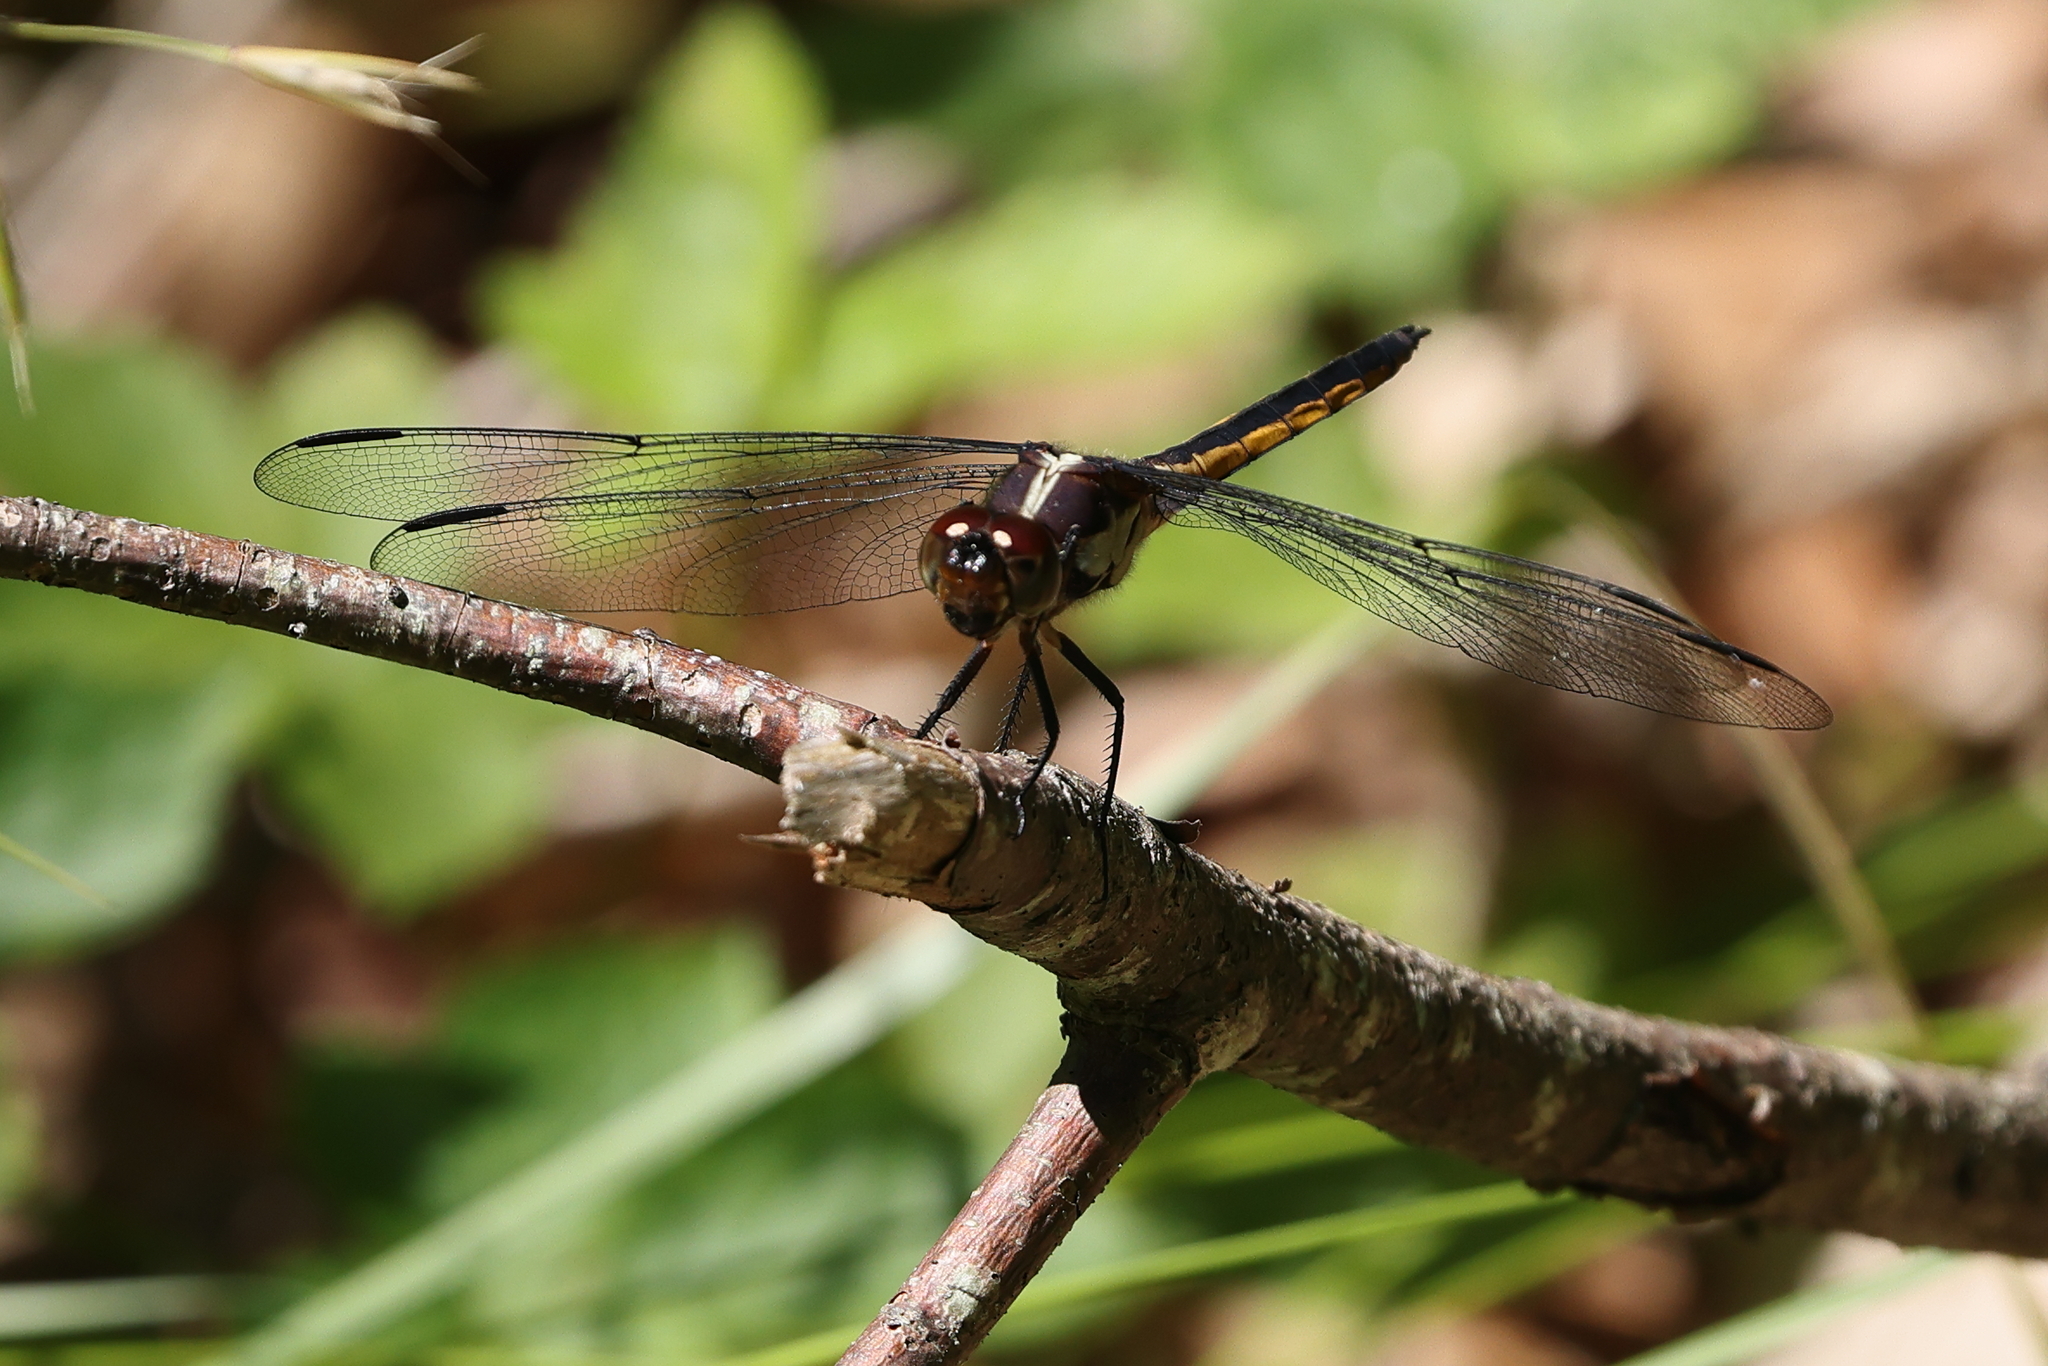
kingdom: Animalia
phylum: Arthropoda
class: Insecta
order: Odonata
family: Libellulidae
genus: Libellula
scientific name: Libellula incesta
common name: Slaty skimmer
